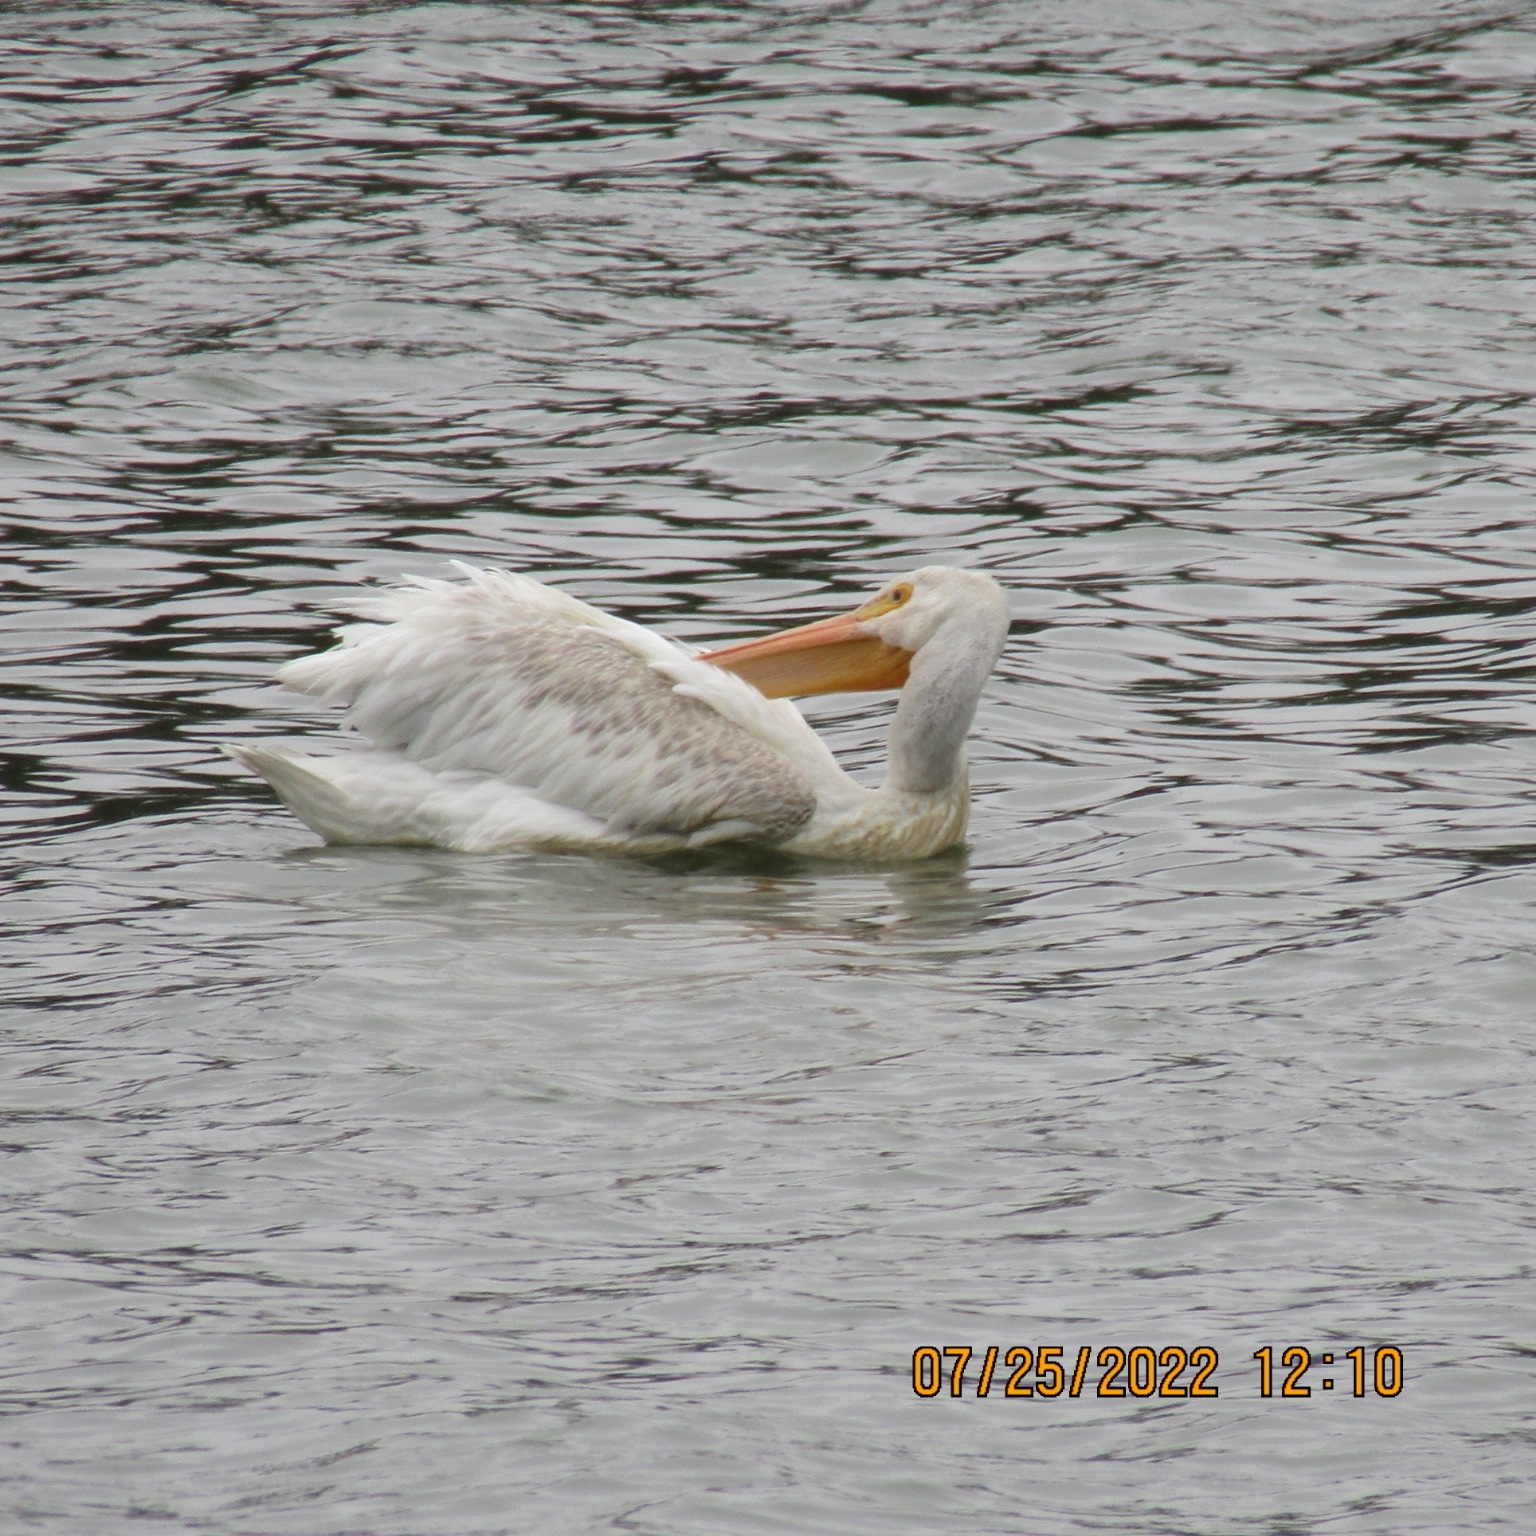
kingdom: Animalia
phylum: Chordata
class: Aves
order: Pelecaniformes
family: Pelecanidae
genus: Pelecanus
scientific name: Pelecanus erythrorhynchos
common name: American white pelican
